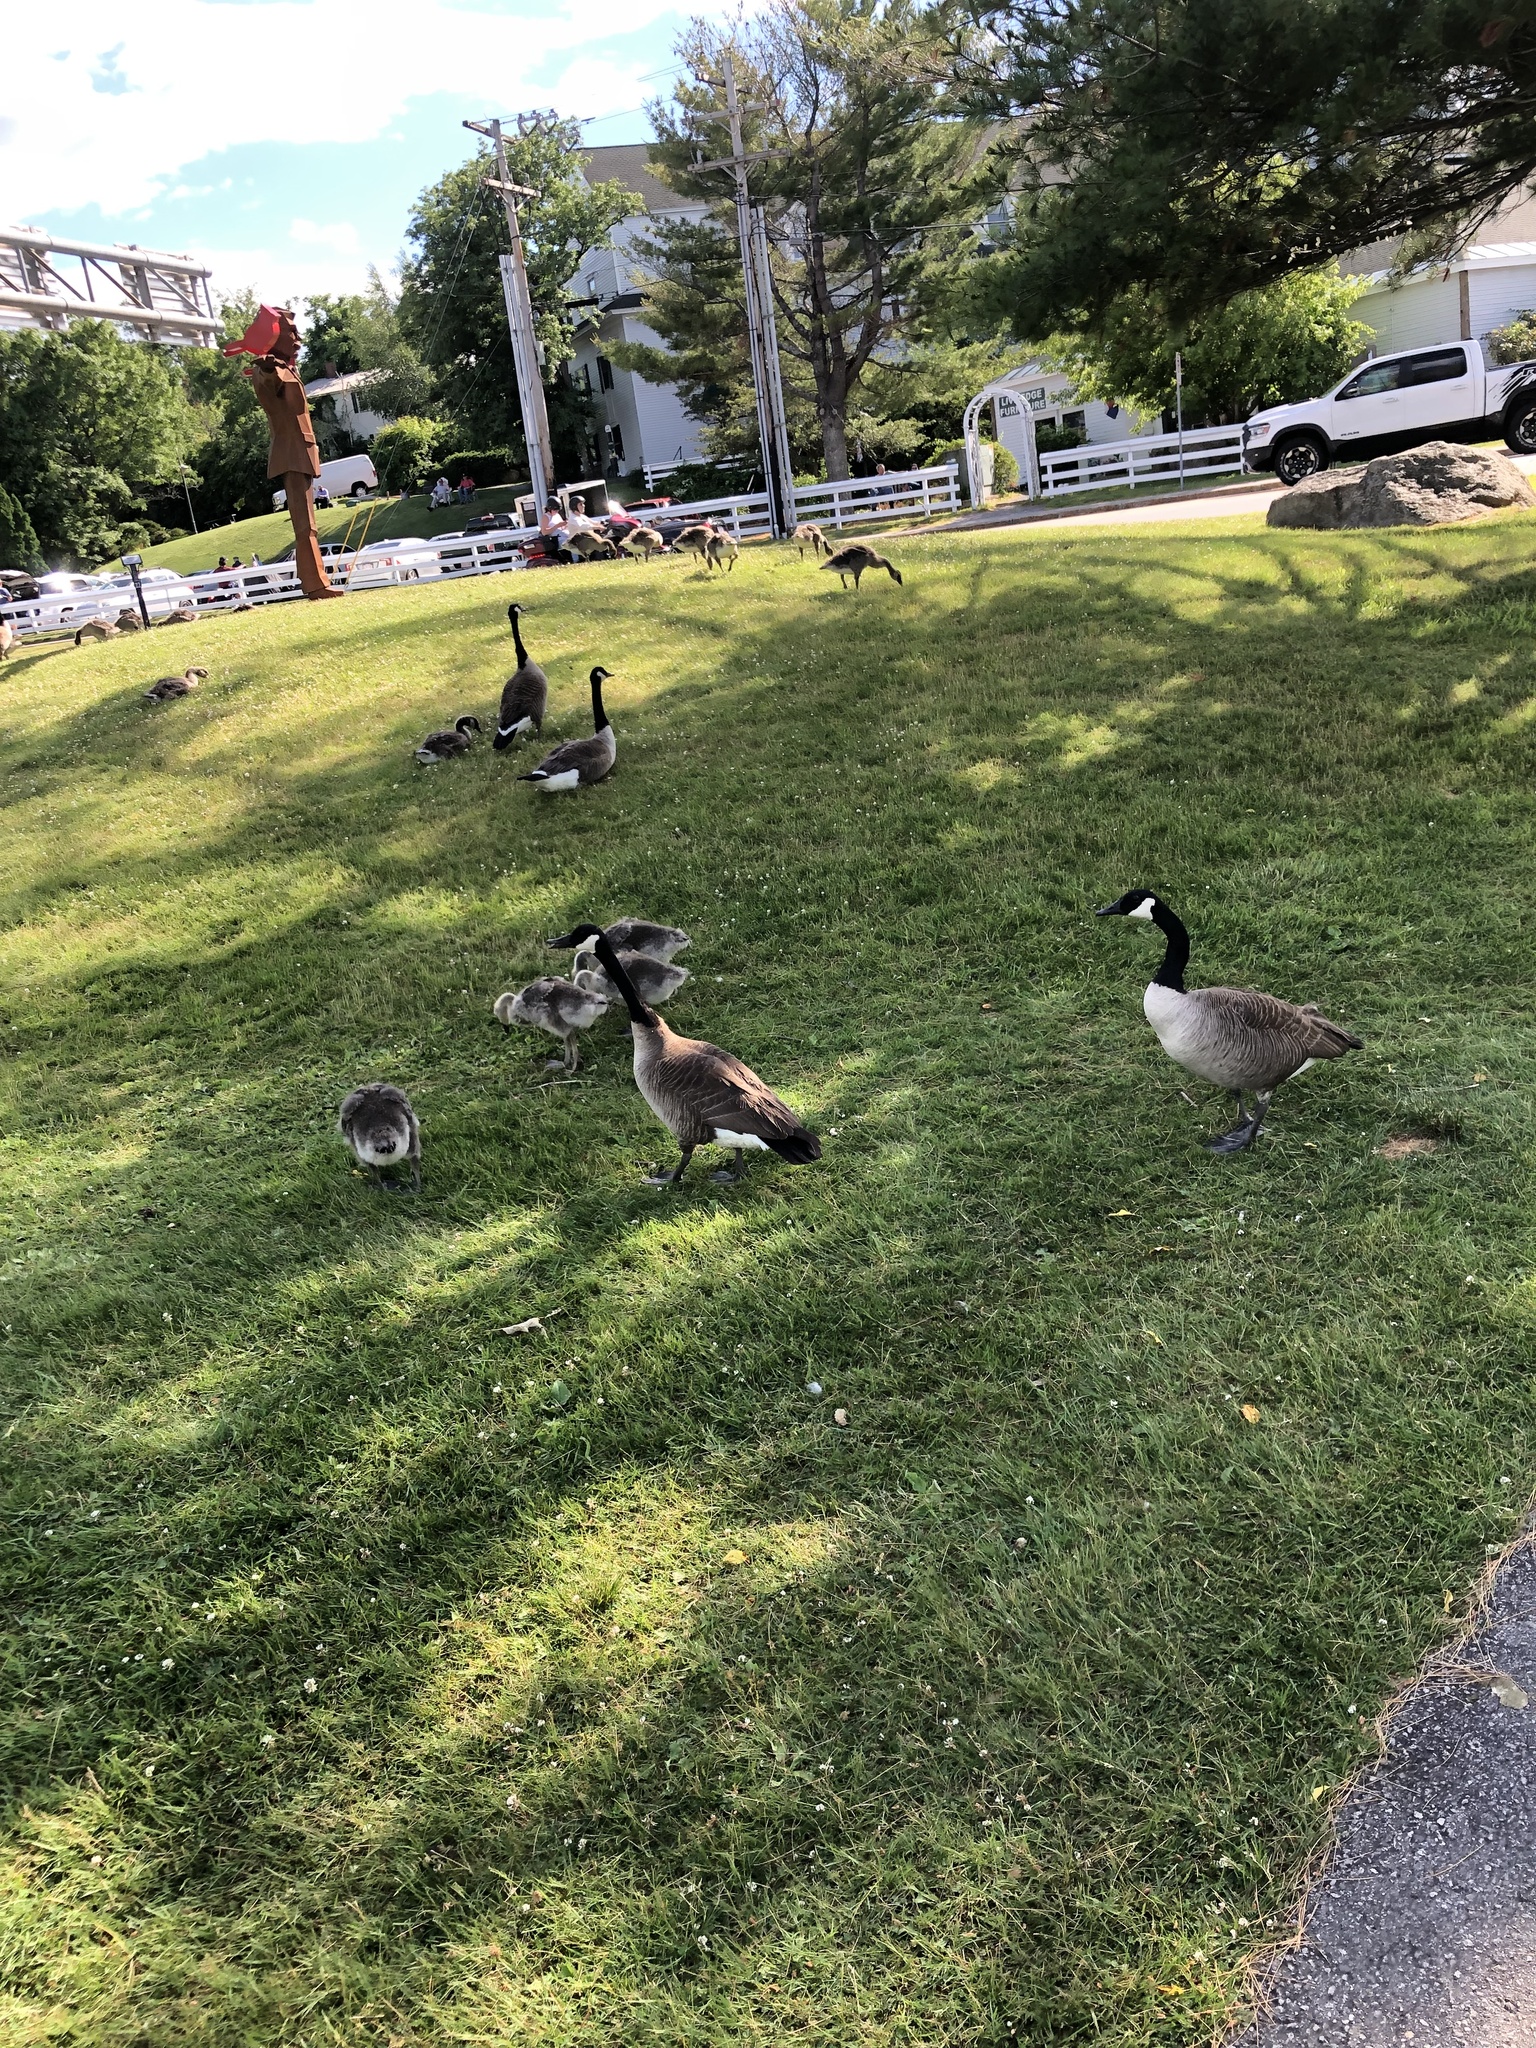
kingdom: Animalia
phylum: Chordata
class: Aves
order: Anseriformes
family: Anatidae
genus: Branta
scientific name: Branta canadensis
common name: Canada goose
